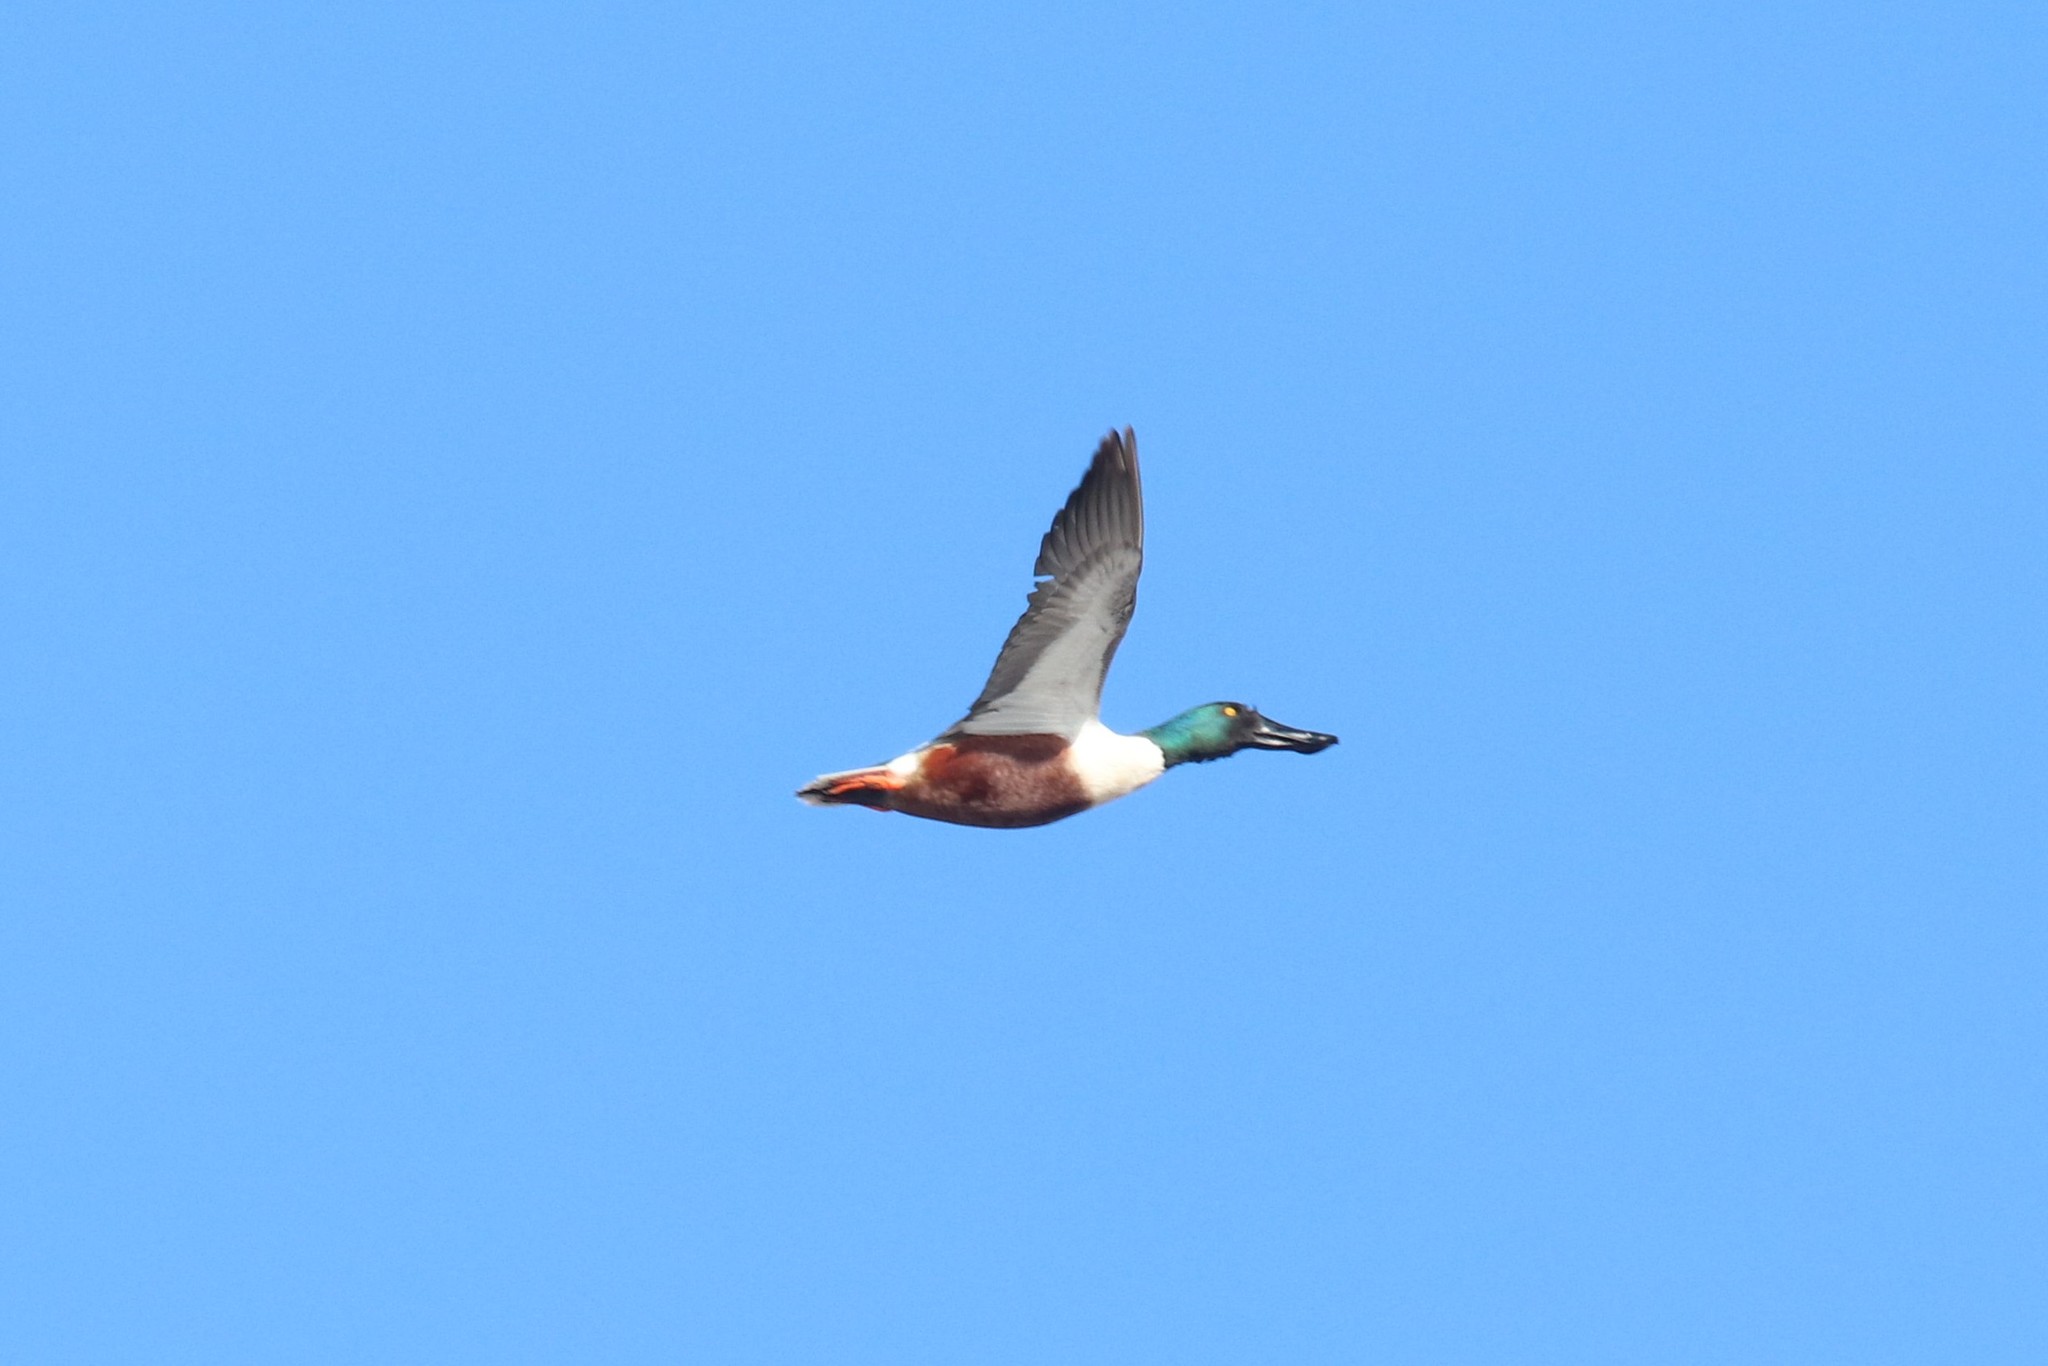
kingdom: Animalia
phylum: Chordata
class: Aves
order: Anseriformes
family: Anatidae
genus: Spatula
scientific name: Spatula clypeata
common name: Northern shoveler
